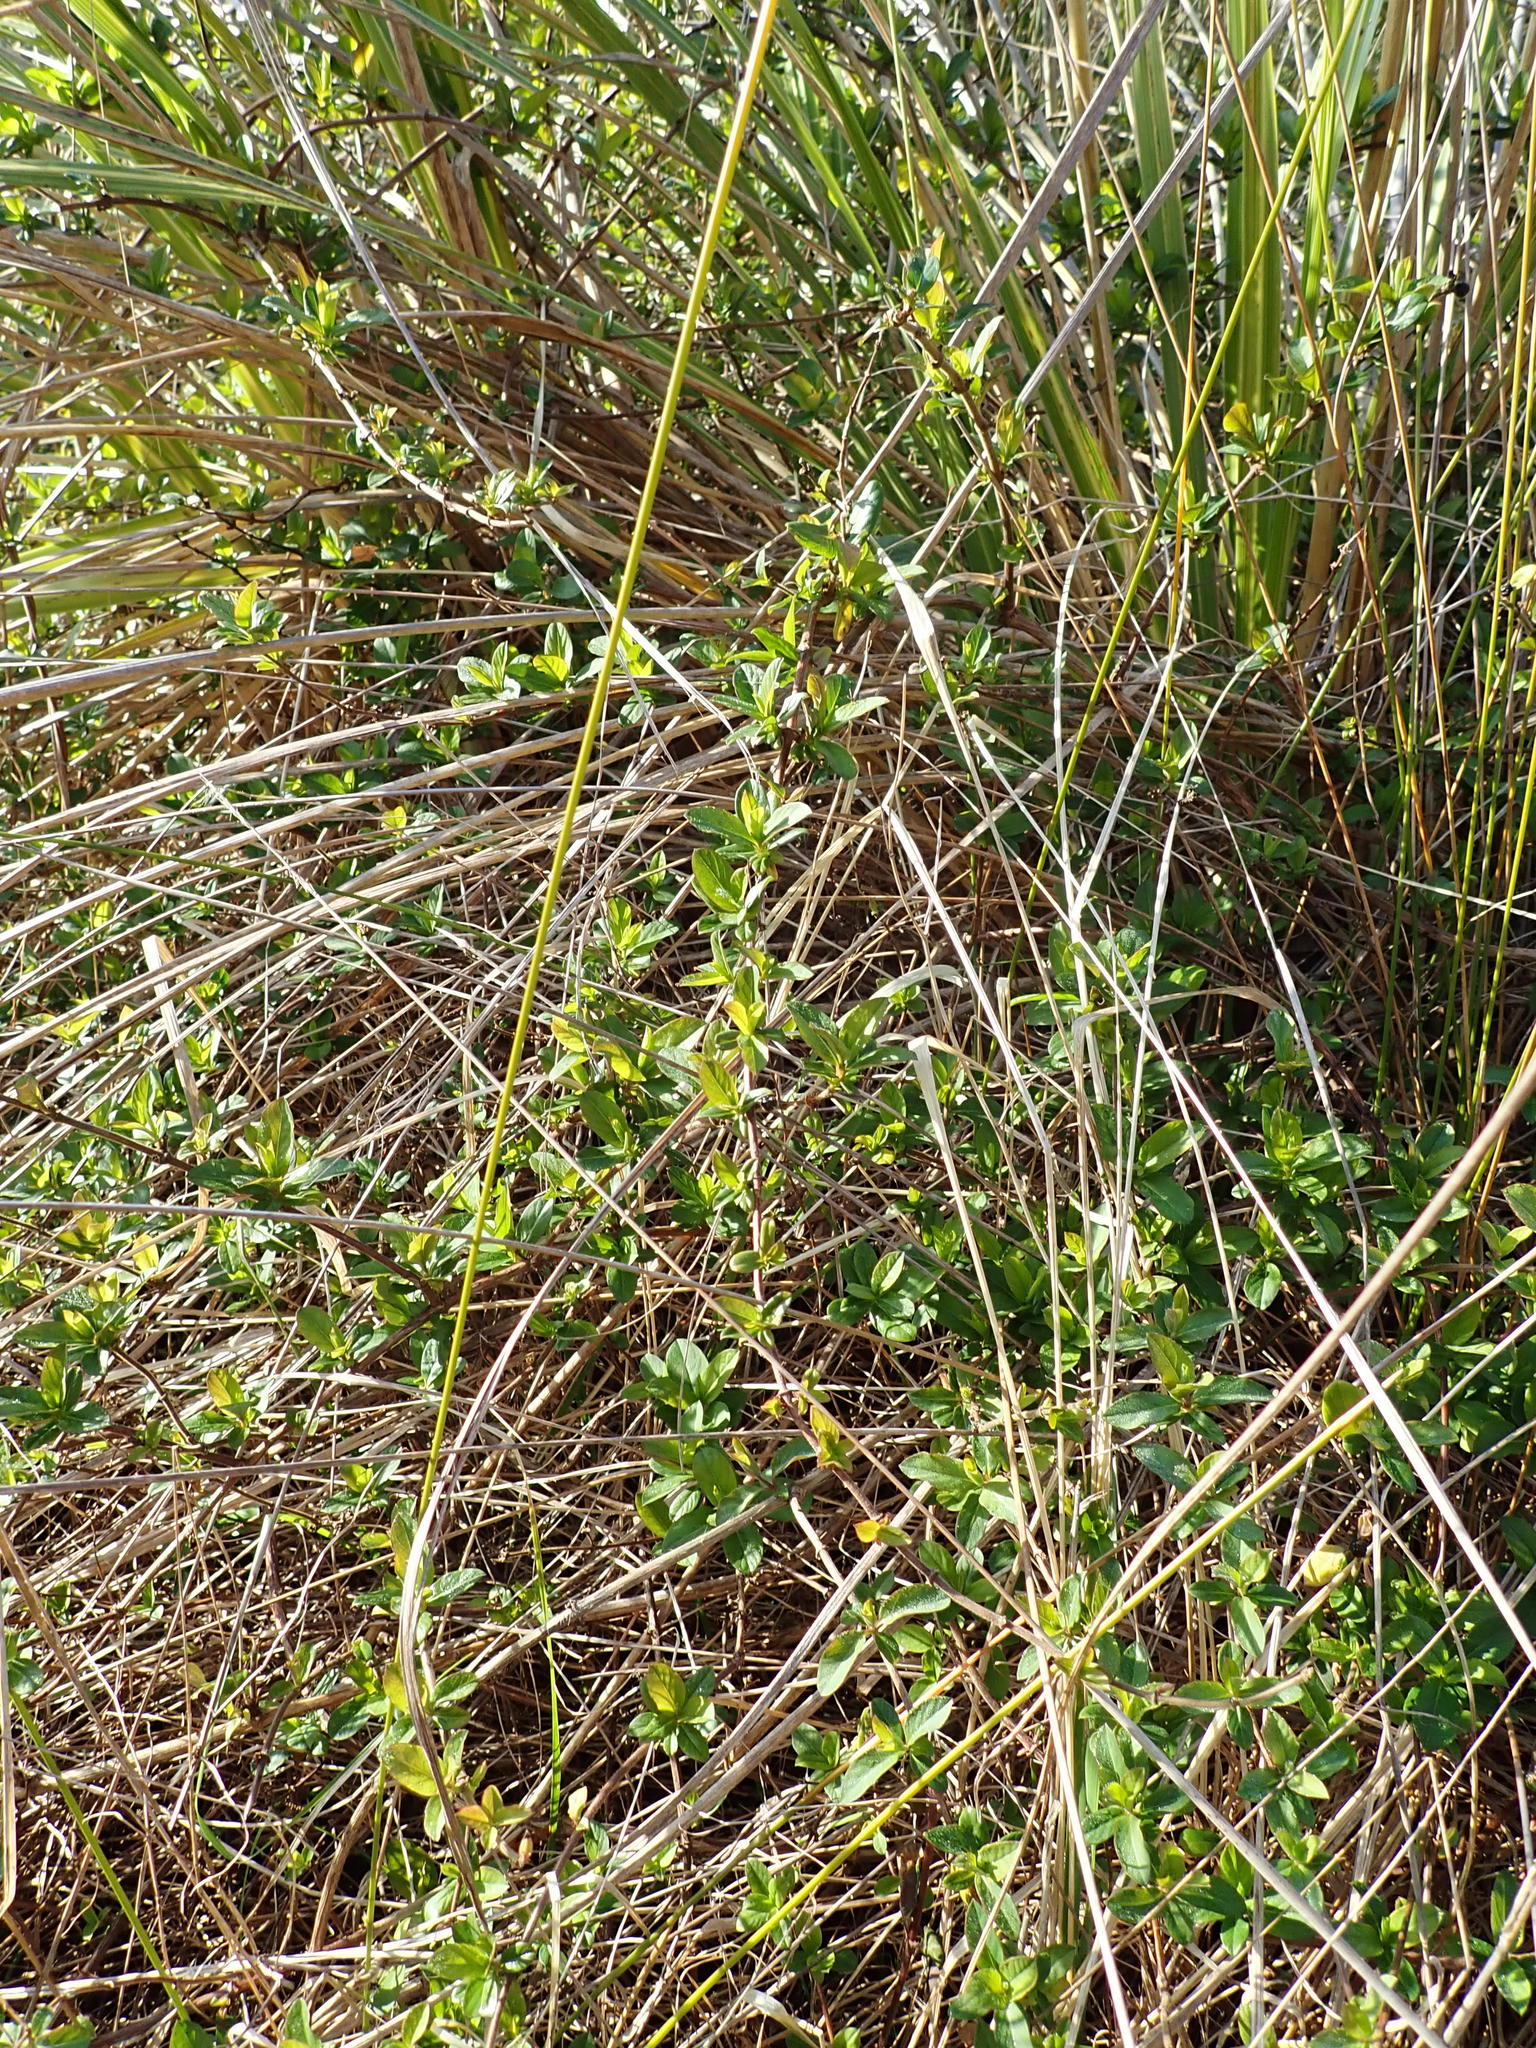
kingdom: Plantae
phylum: Tracheophyta
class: Magnoliopsida
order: Dipsacales
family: Caprifoliaceae
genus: Lonicera
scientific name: Lonicera japonica
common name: Japanese honeysuckle
